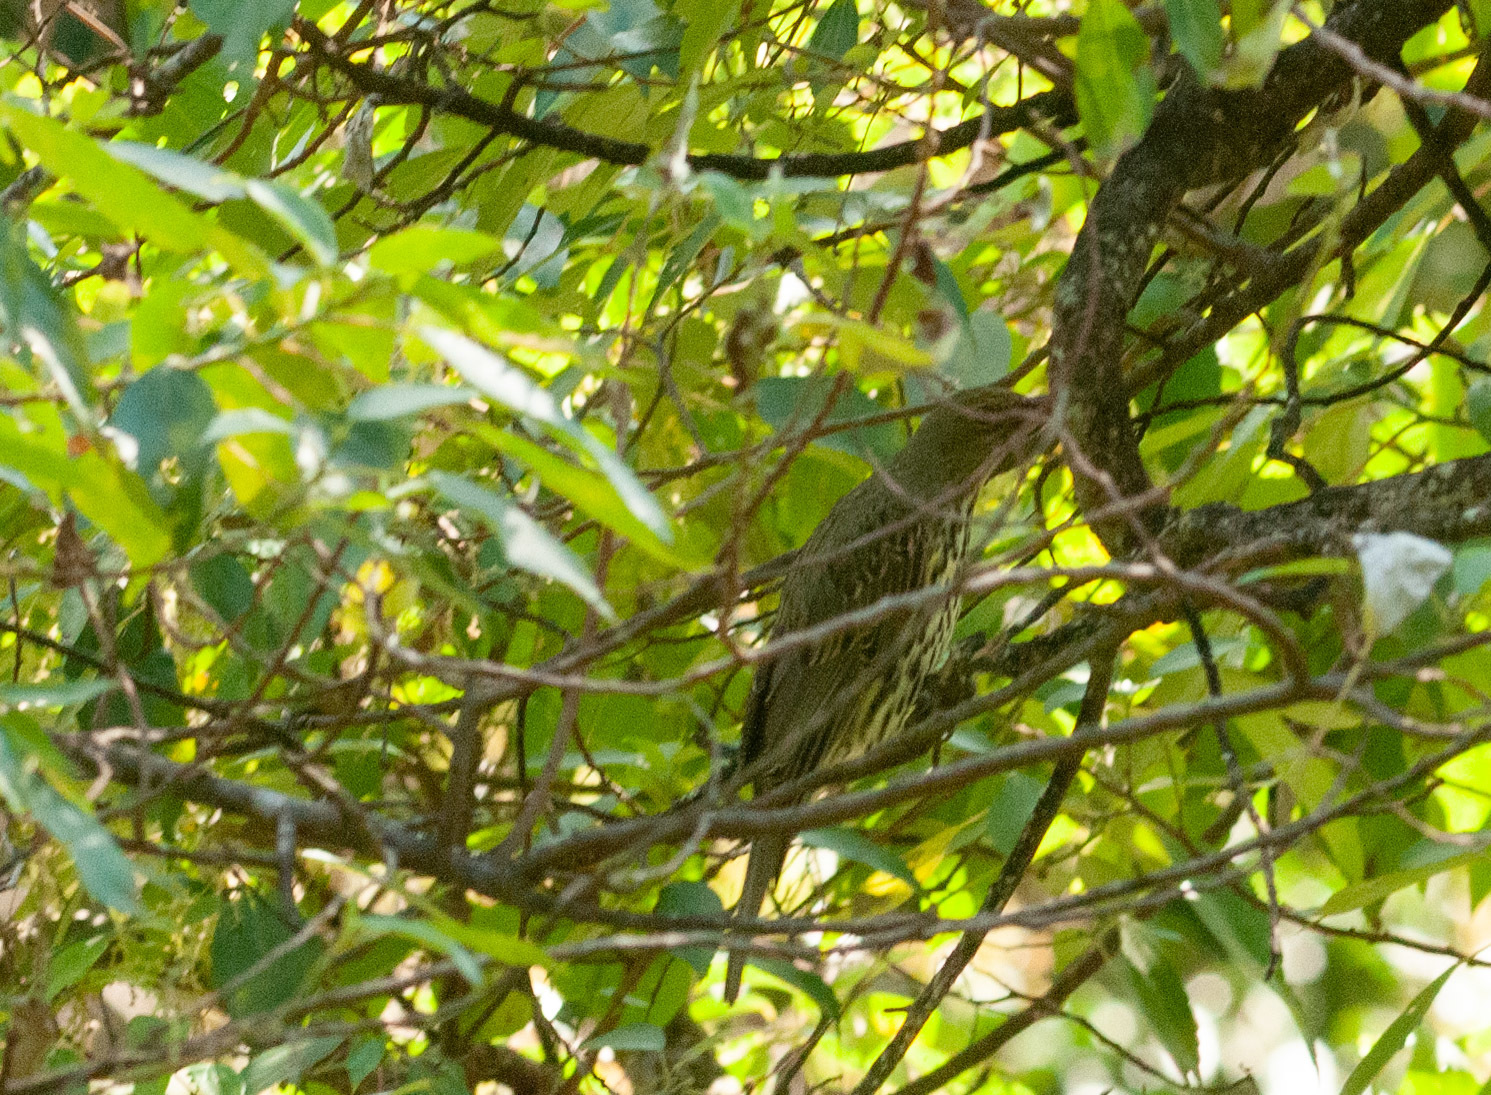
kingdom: Animalia
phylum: Chordata
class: Aves
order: Passeriformes
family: Oriolidae
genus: Oriolus
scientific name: Oriolus sagittatus
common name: Olive-backed oriole
